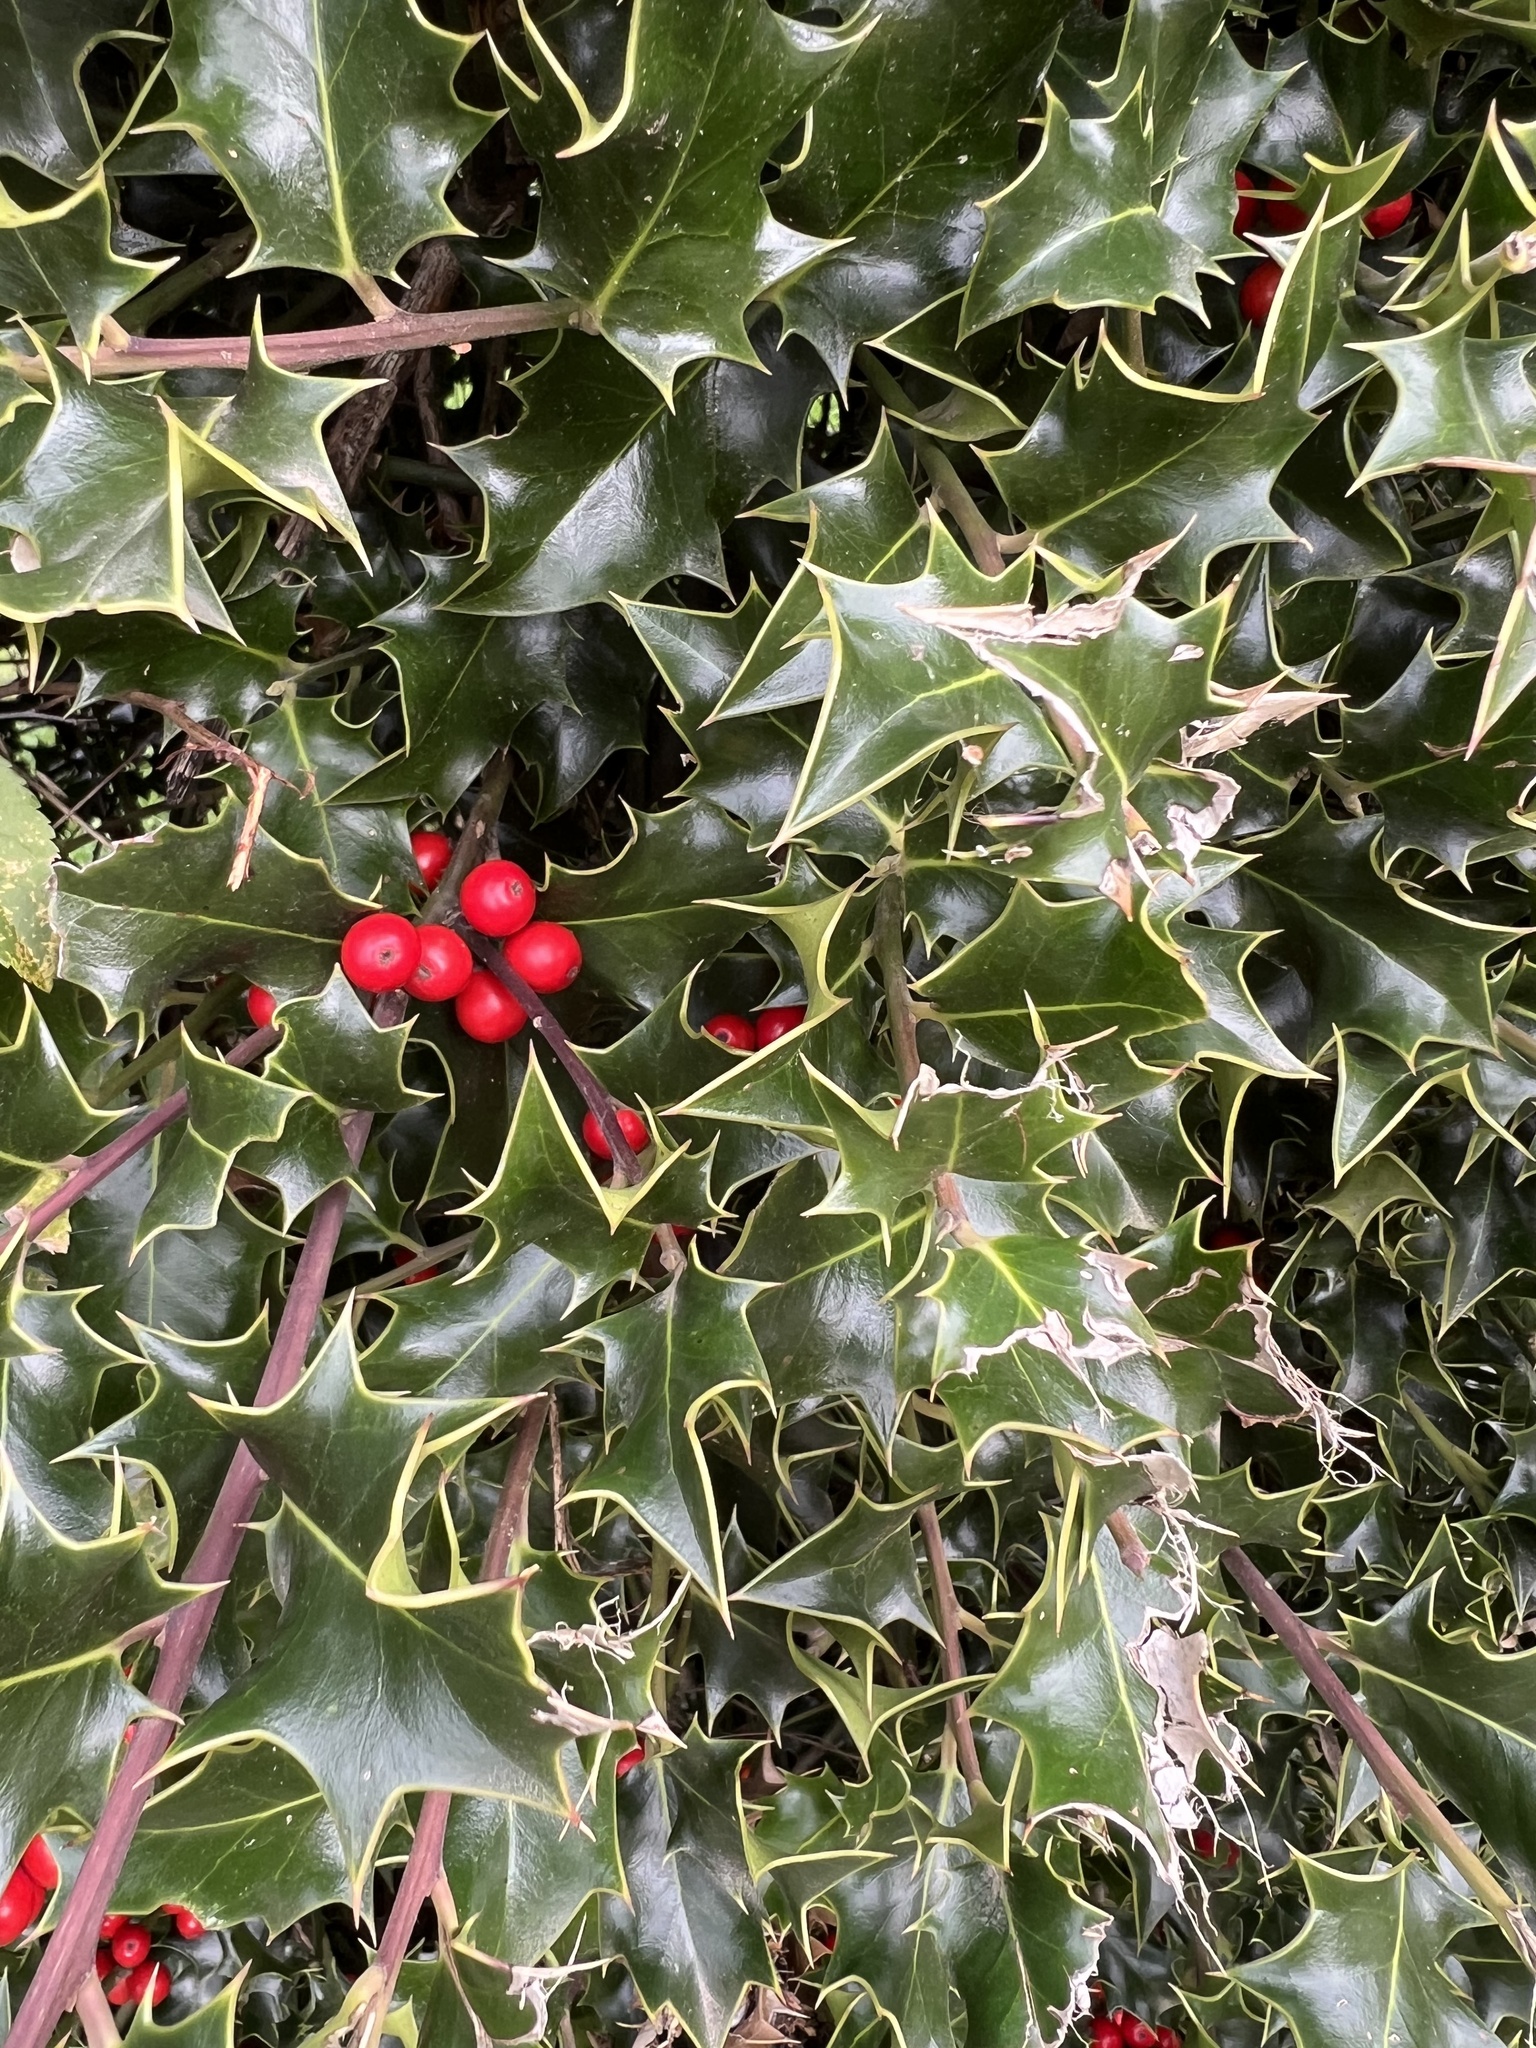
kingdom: Plantae
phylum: Tracheophyta
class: Magnoliopsida
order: Aquifoliales
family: Aquifoliaceae
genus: Ilex
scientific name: Ilex aquifolium
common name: English holly
